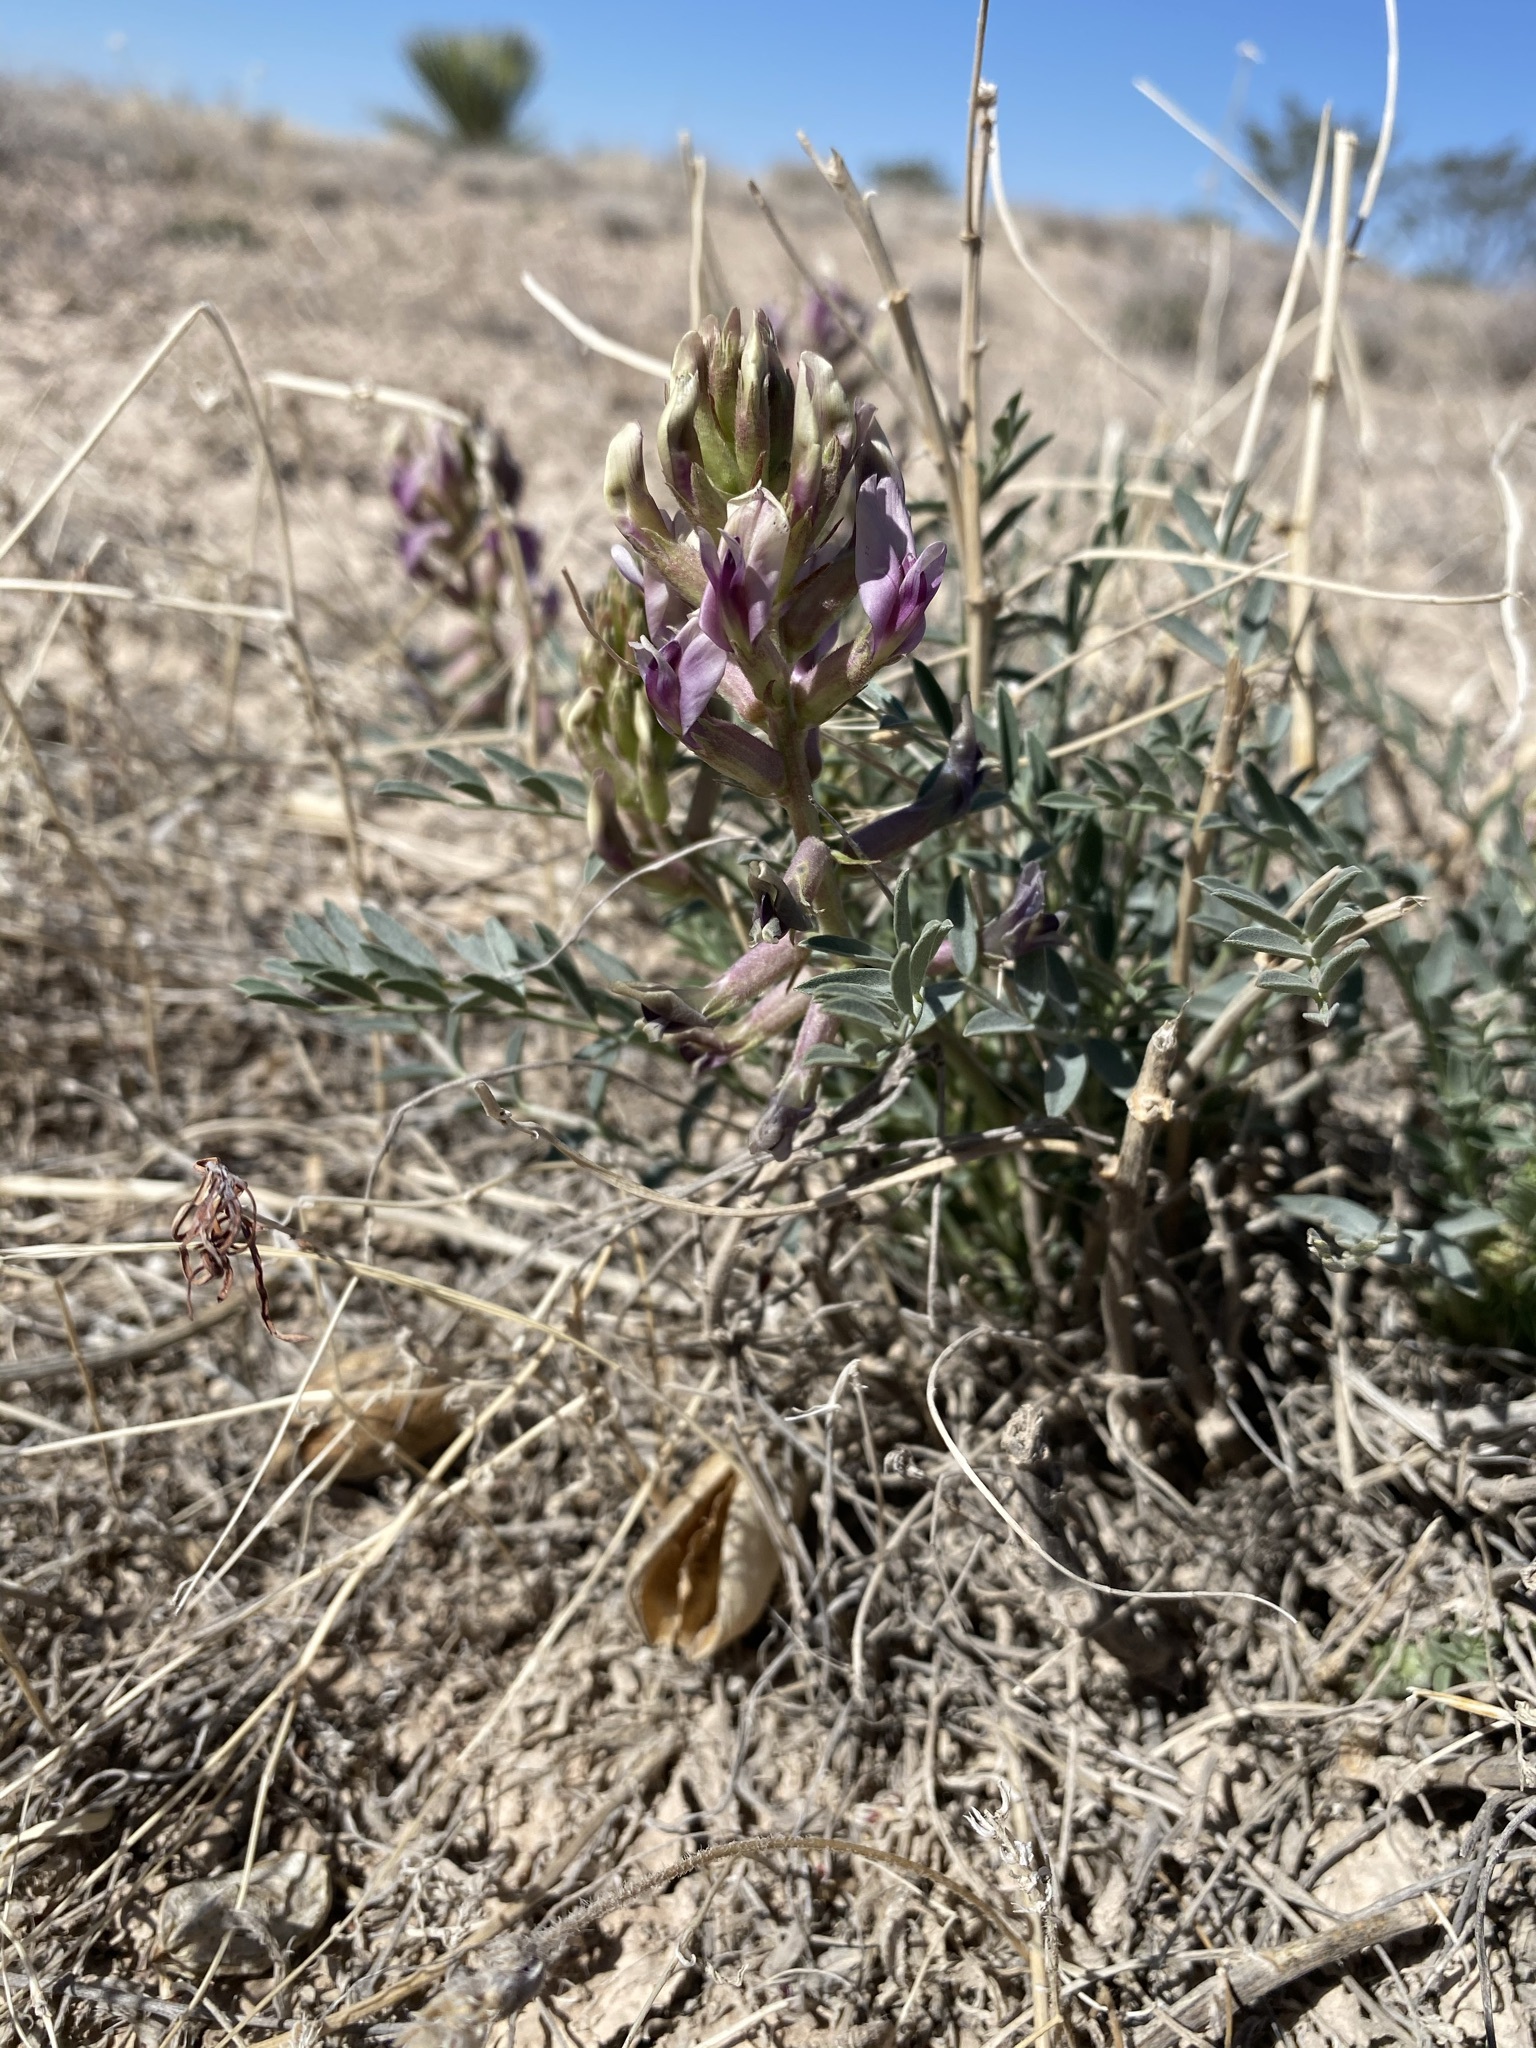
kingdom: Plantae
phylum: Tracheophyta
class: Magnoliopsida
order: Fabales
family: Fabaceae
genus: Astragalus
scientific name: Astragalus gypsodes
